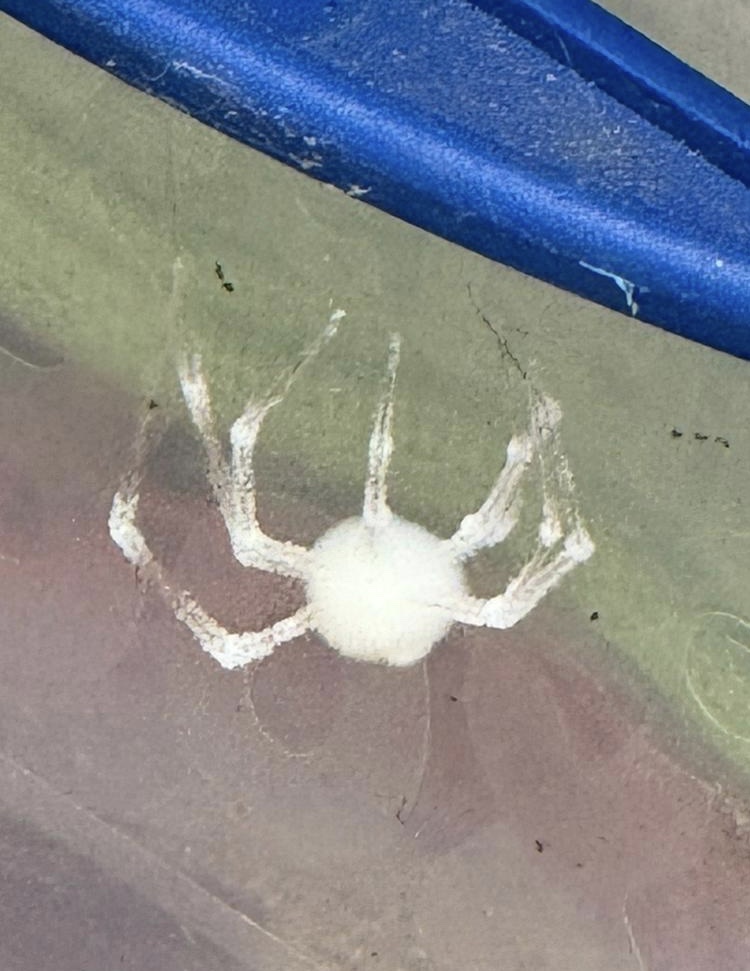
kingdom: Fungi
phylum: Ascomycota
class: Sordariomycetes
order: Hypocreales
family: Cordycipitaceae
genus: Lecanicillium
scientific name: Lecanicillium tenuipes
